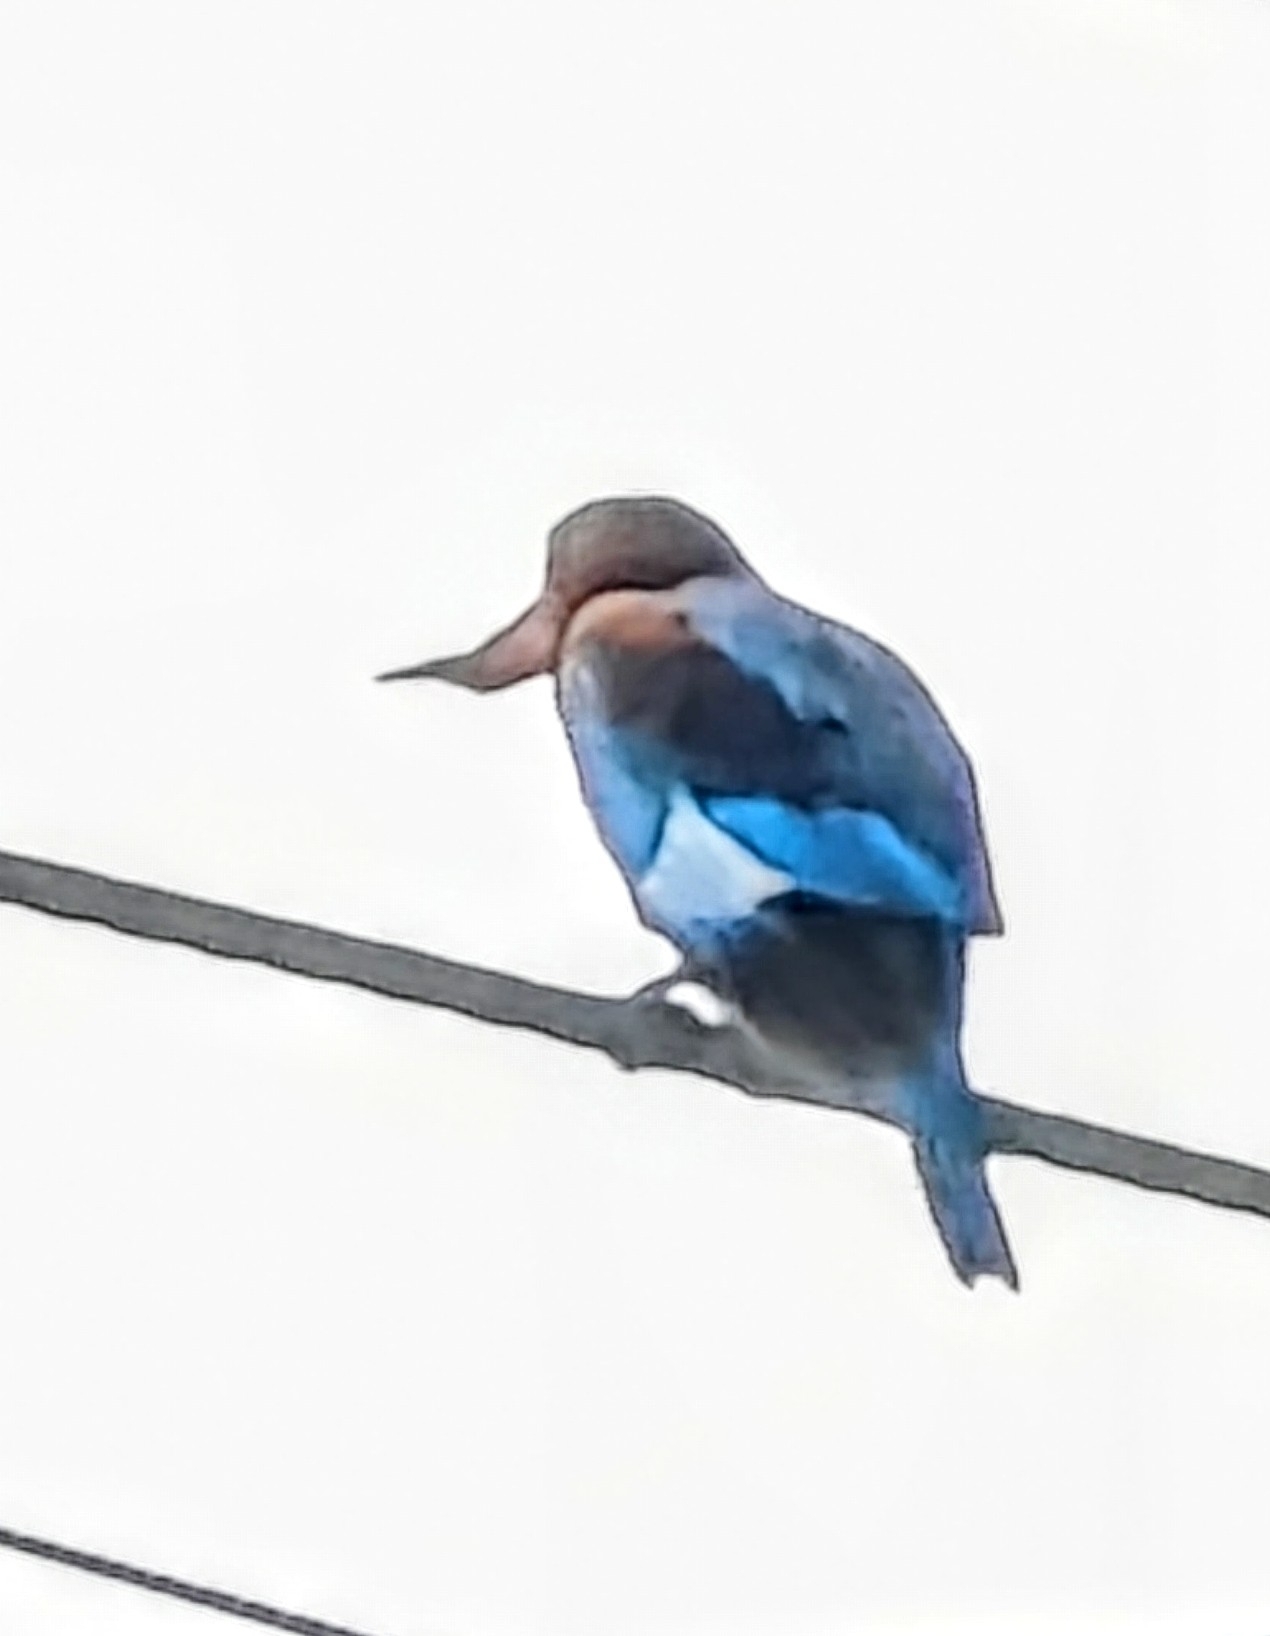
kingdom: Animalia
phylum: Chordata
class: Aves
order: Coraciiformes
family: Alcedinidae
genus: Halcyon
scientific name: Halcyon smyrnensis
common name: White-throated kingfisher
